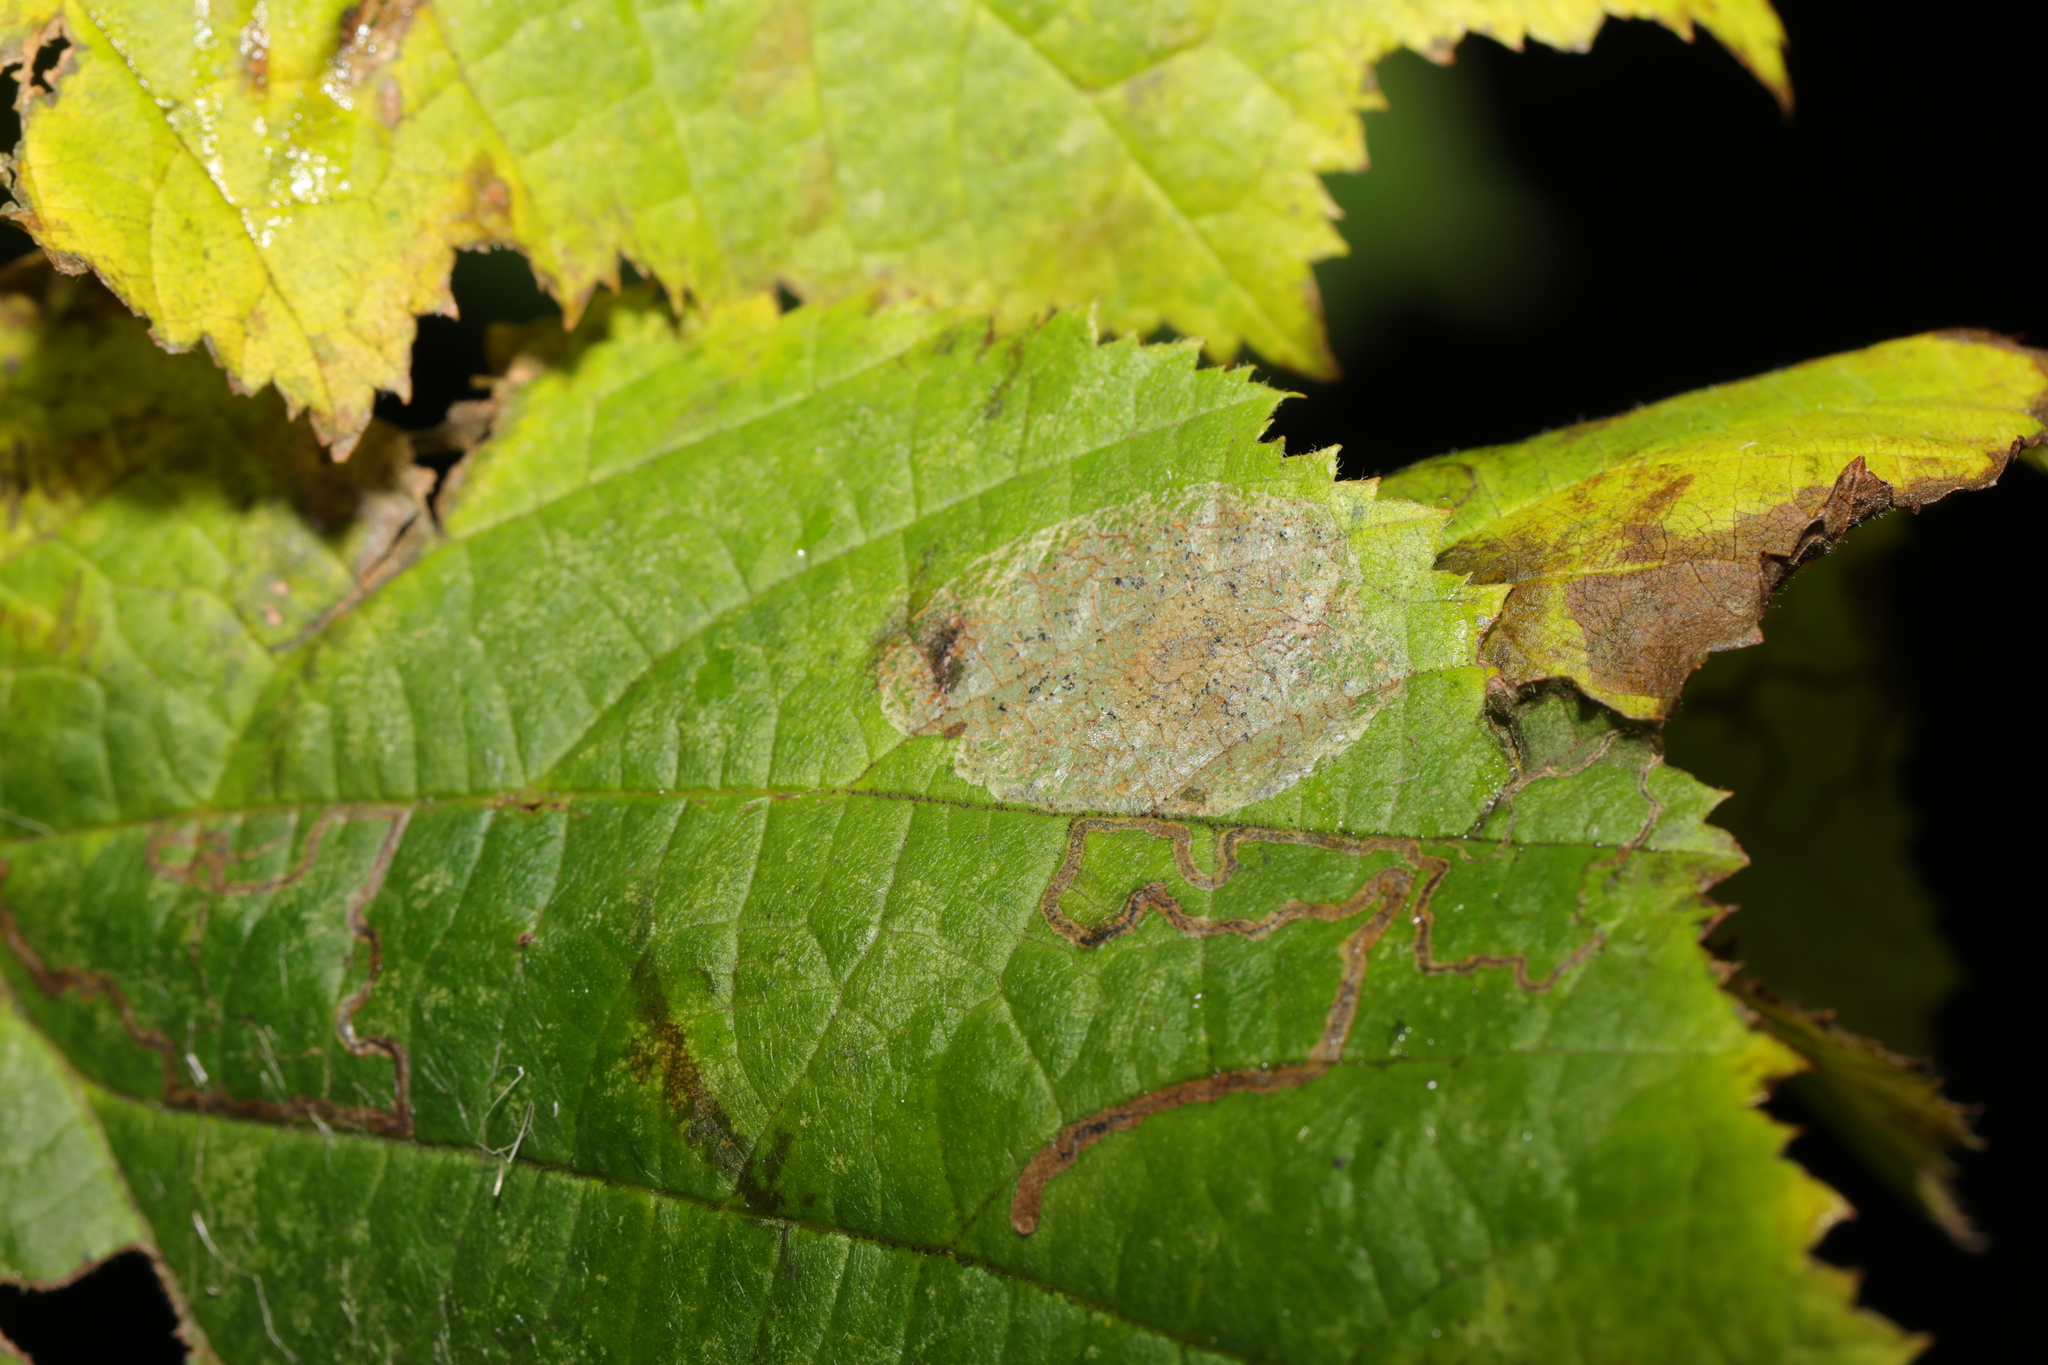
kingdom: Animalia
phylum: Arthropoda
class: Insecta
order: Lepidoptera
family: Gracillariidae
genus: Phyllonorycter
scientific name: Phyllonorycter coryli
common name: Nut-leaf blister moth
